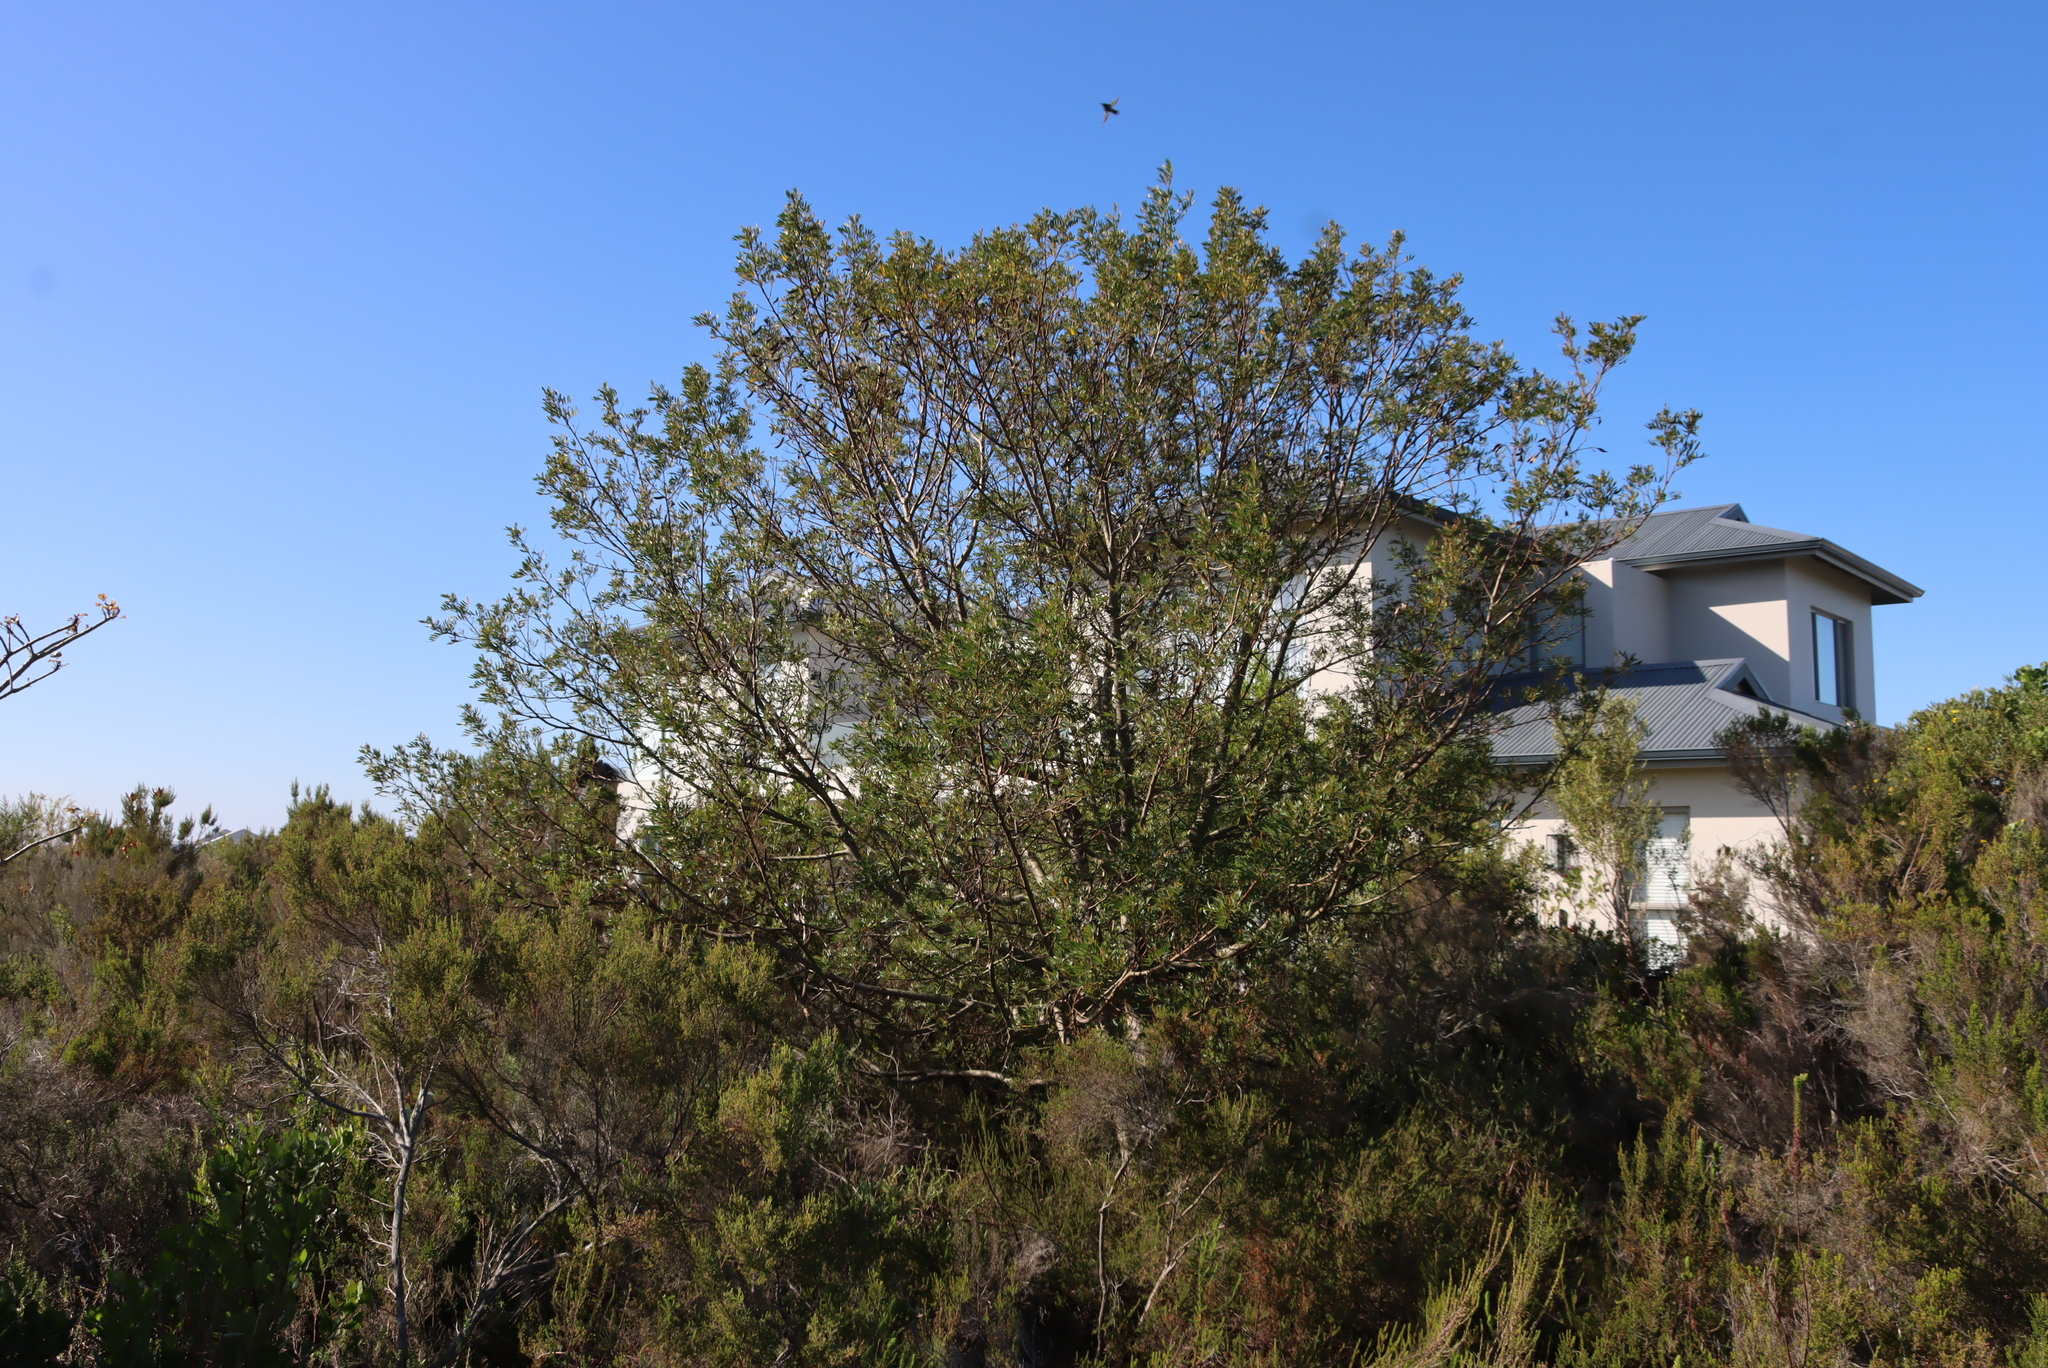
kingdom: Plantae
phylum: Tracheophyta
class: Magnoliopsida
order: Fabales
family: Fabaceae
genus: Virgilia
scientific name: Virgilia divaricata
